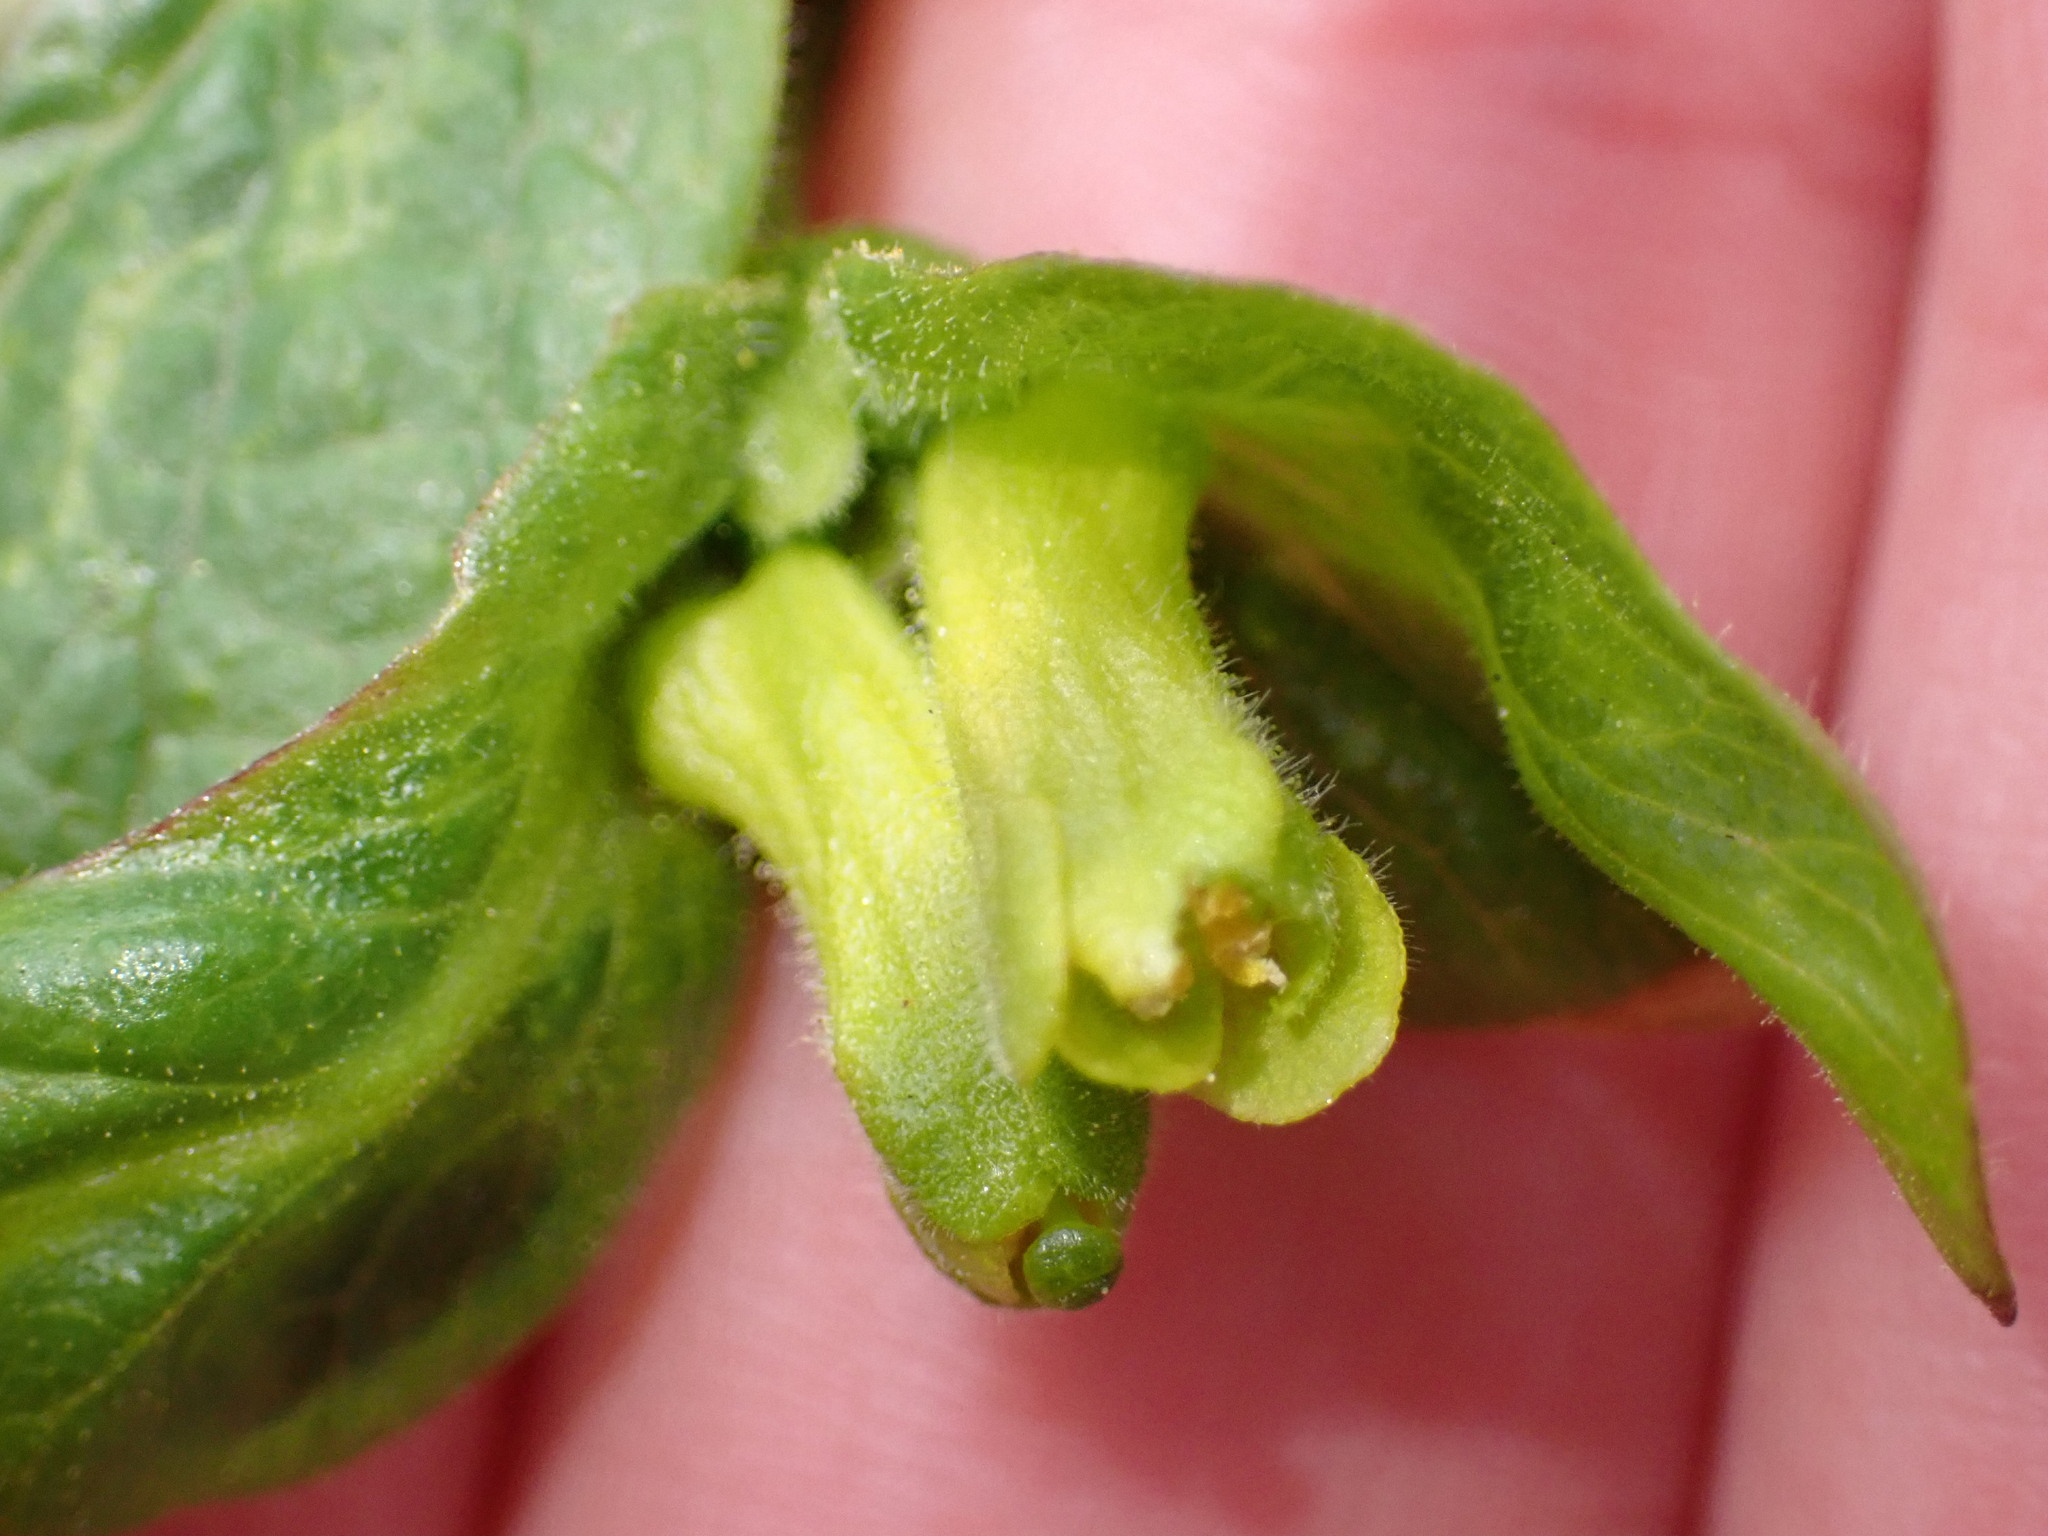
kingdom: Plantae
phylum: Tracheophyta
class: Magnoliopsida
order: Dipsacales
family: Caprifoliaceae
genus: Lonicera
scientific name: Lonicera involucrata
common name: Californian honeysuckle
